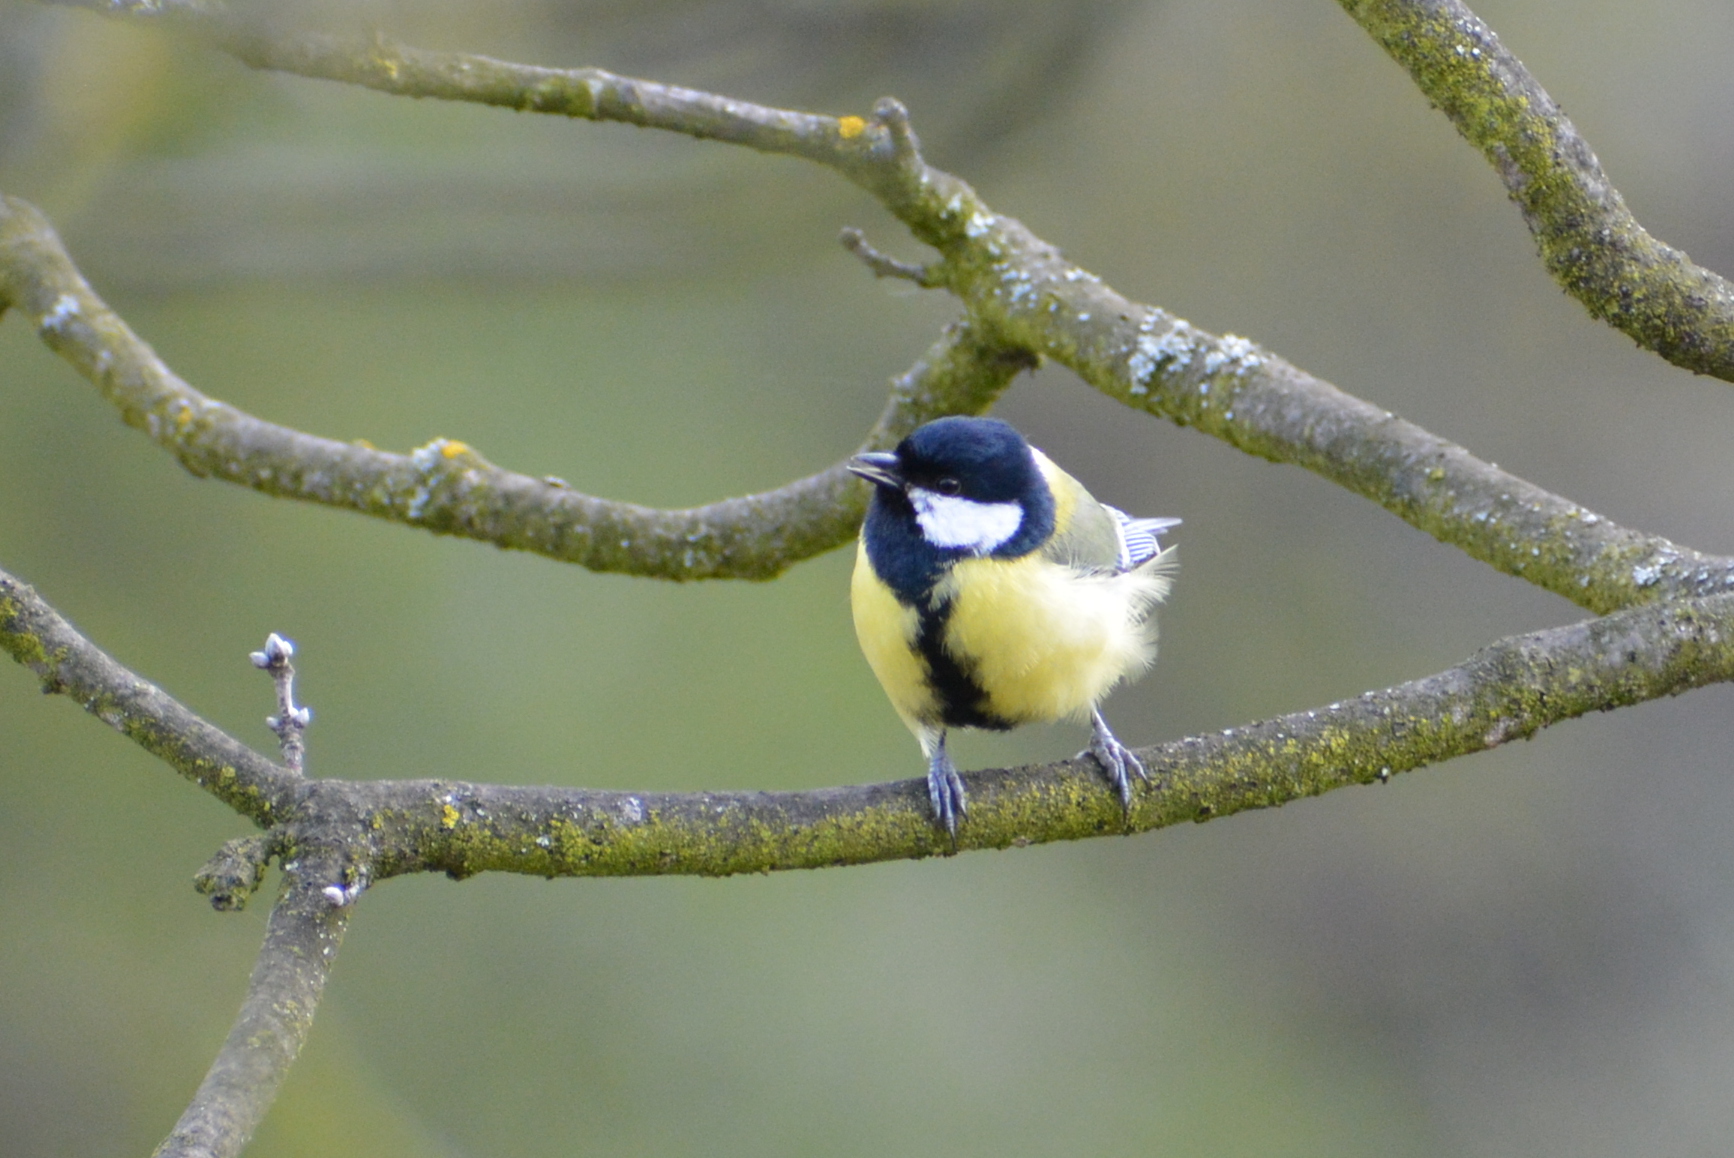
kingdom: Animalia
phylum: Chordata
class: Aves
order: Passeriformes
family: Paridae
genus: Parus
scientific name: Parus major
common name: Great tit
